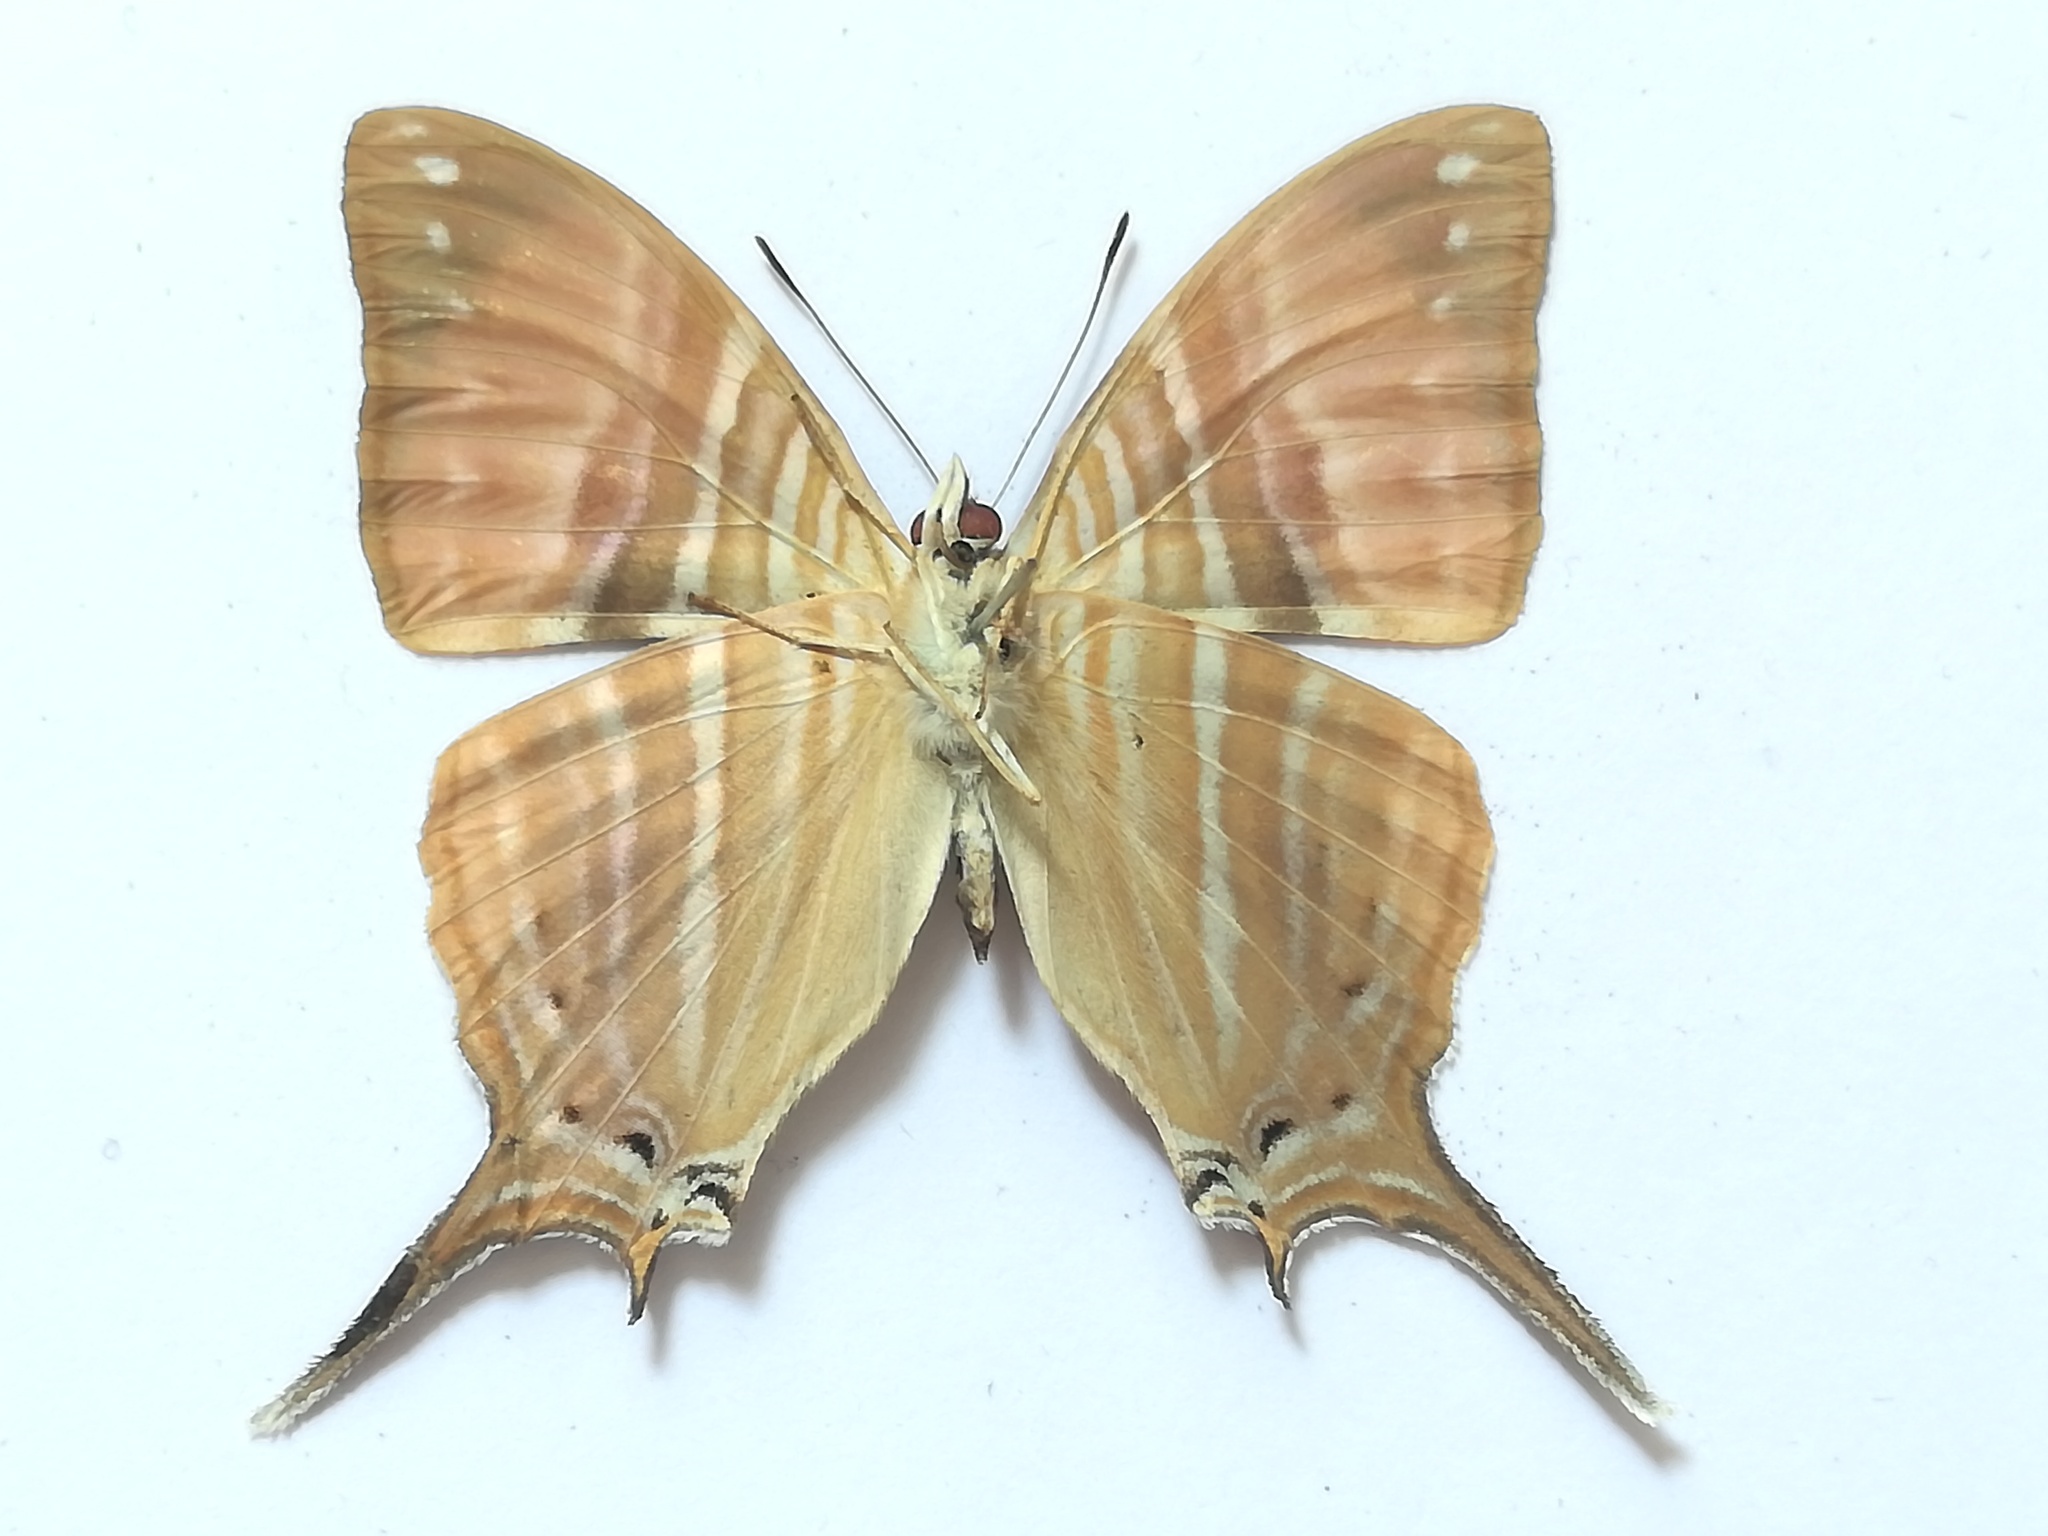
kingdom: Animalia
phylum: Arthropoda
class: Insecta
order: Lepidoptera
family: Nymphalidae
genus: Marpesia
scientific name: Marpesia marcella
